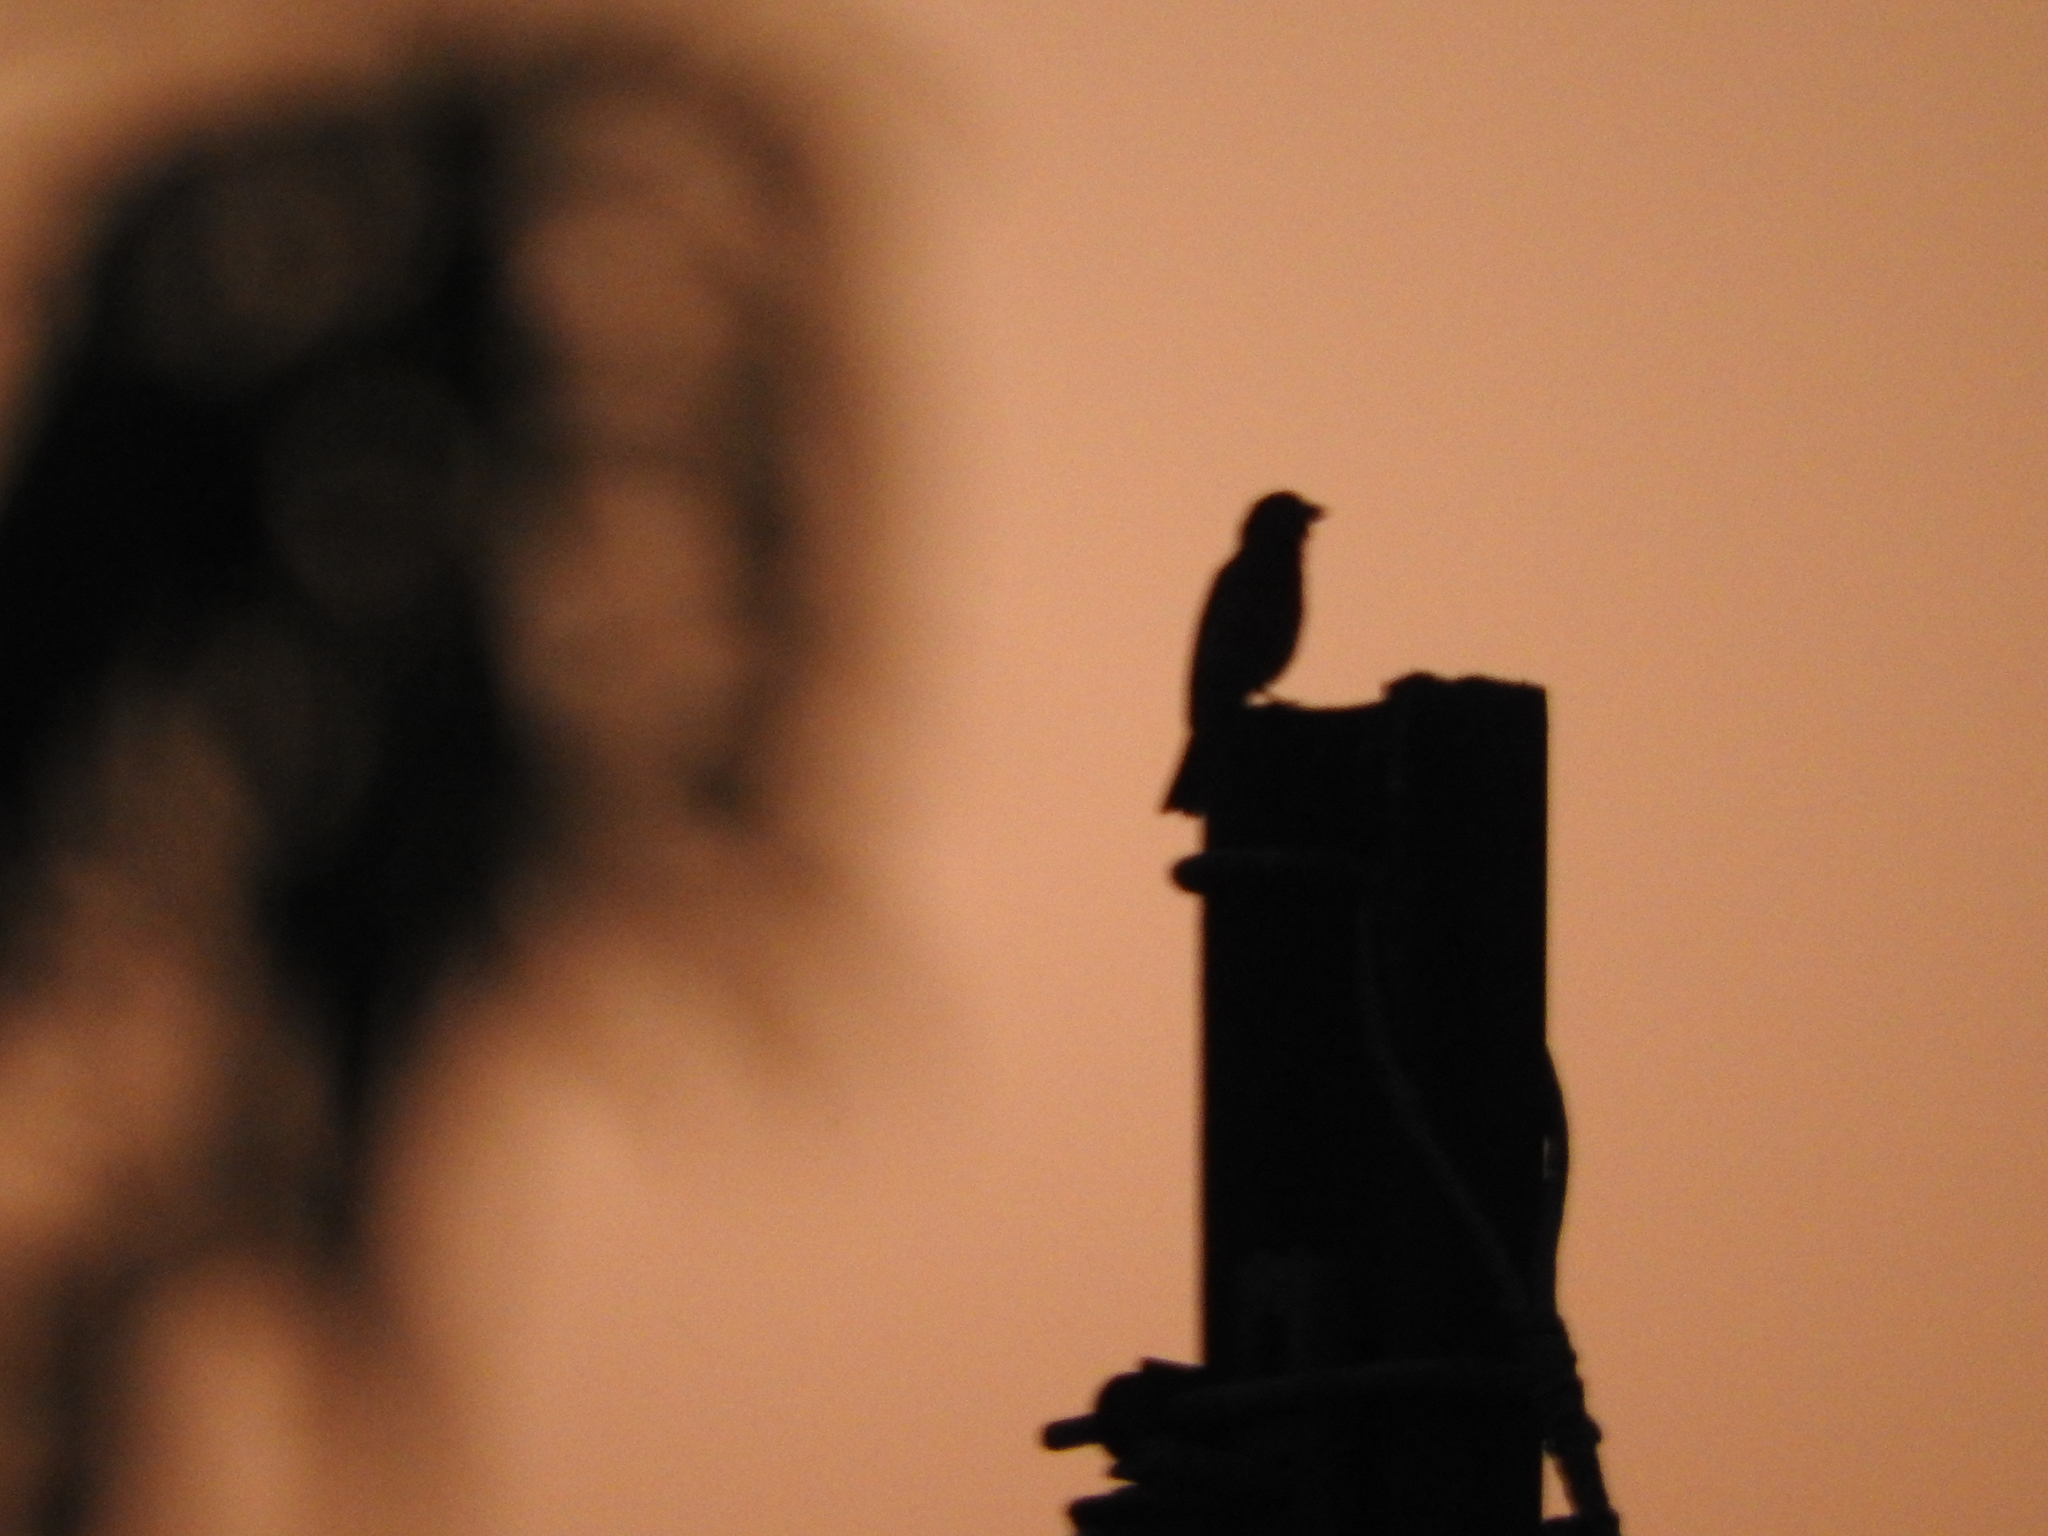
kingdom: Animalia
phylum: Chordata
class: Aves
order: Passeriformes
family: Fringillidae
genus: Haemorhous
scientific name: Haemorhous mexicanus
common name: House finch
